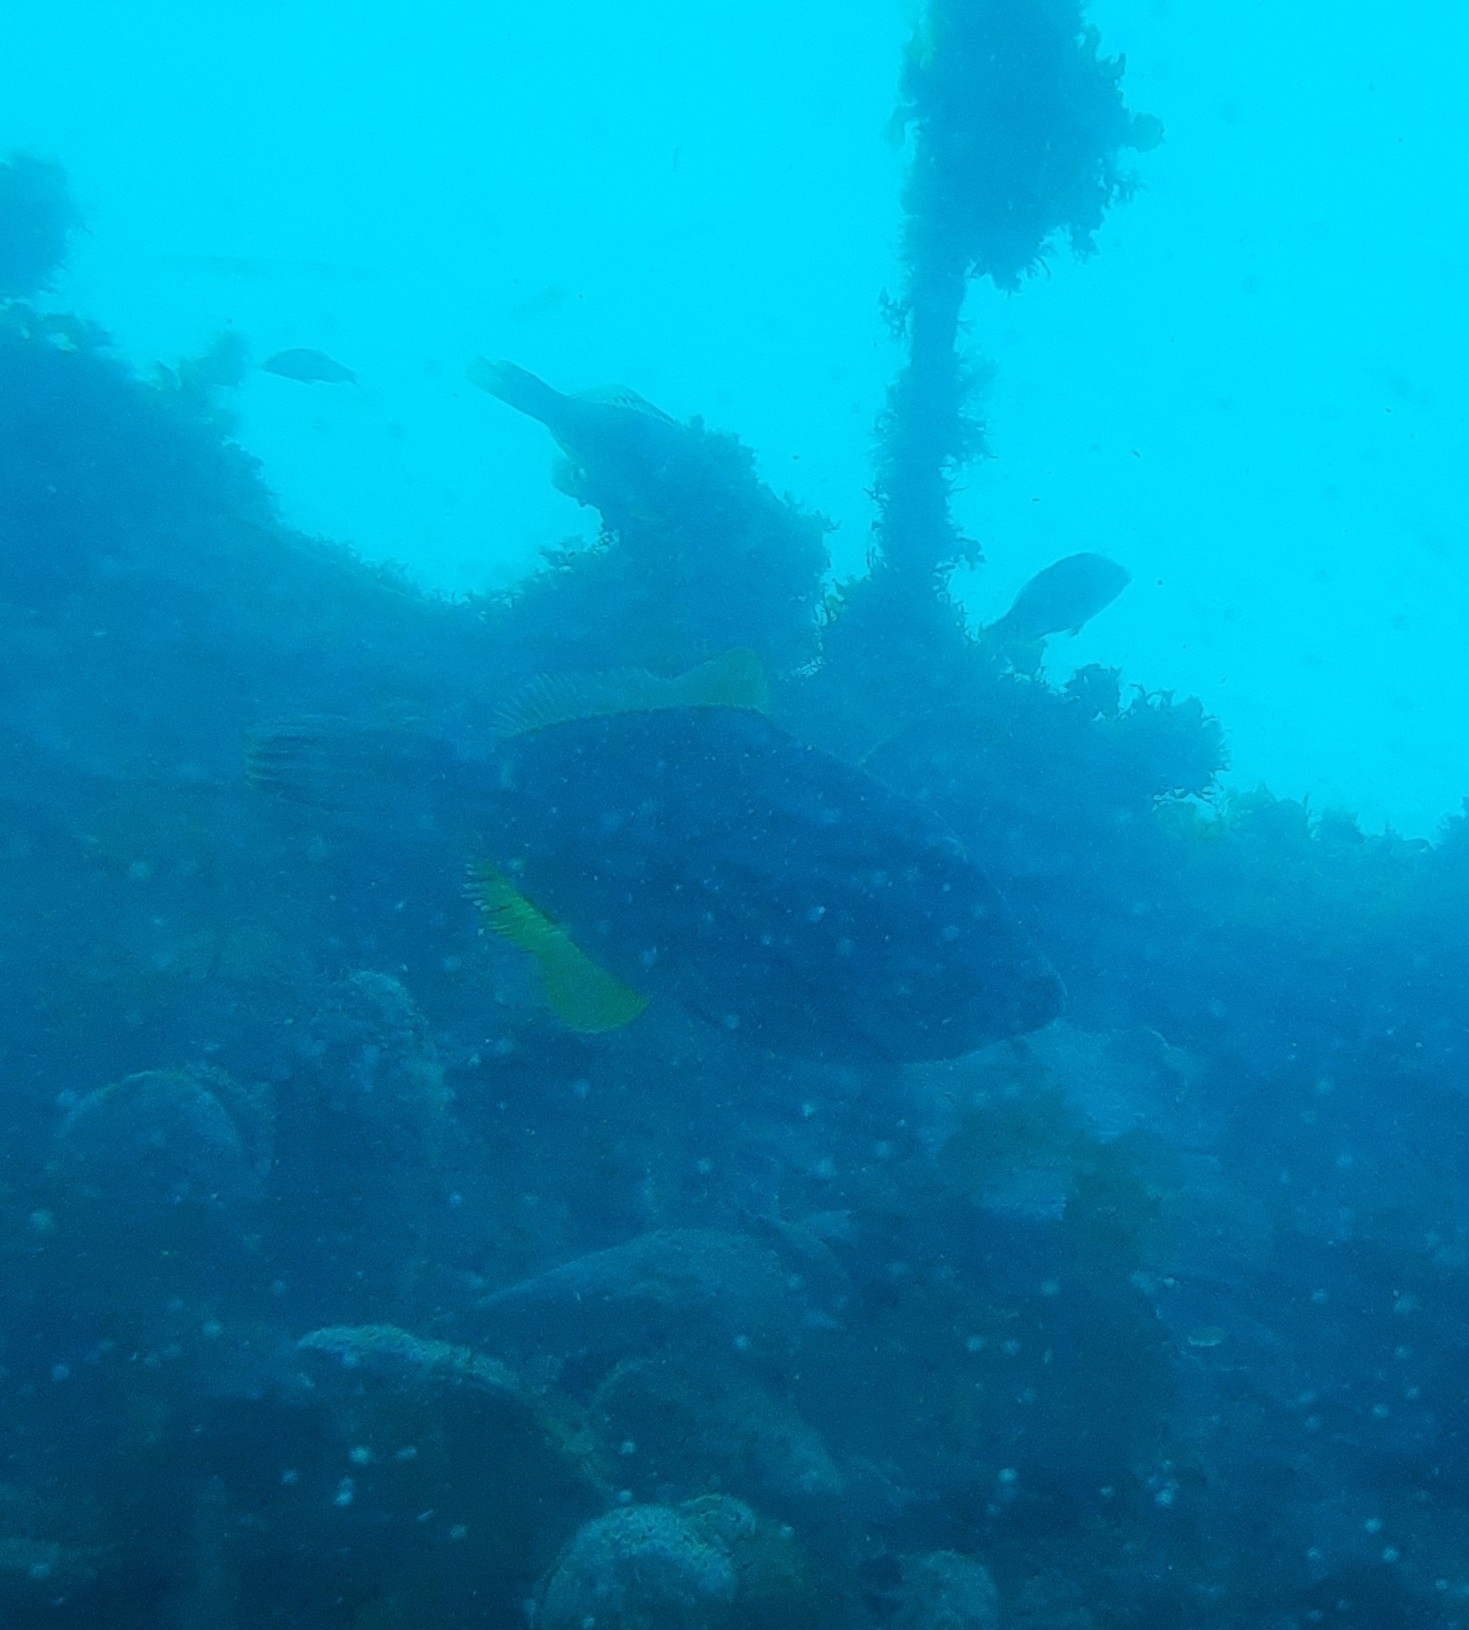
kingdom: Animalia
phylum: Chordata
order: Tetraodontiformes
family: Monacanthidae
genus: Meuschenia
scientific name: Meuschenia scaber
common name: Cosmopolitan leatherjacket
